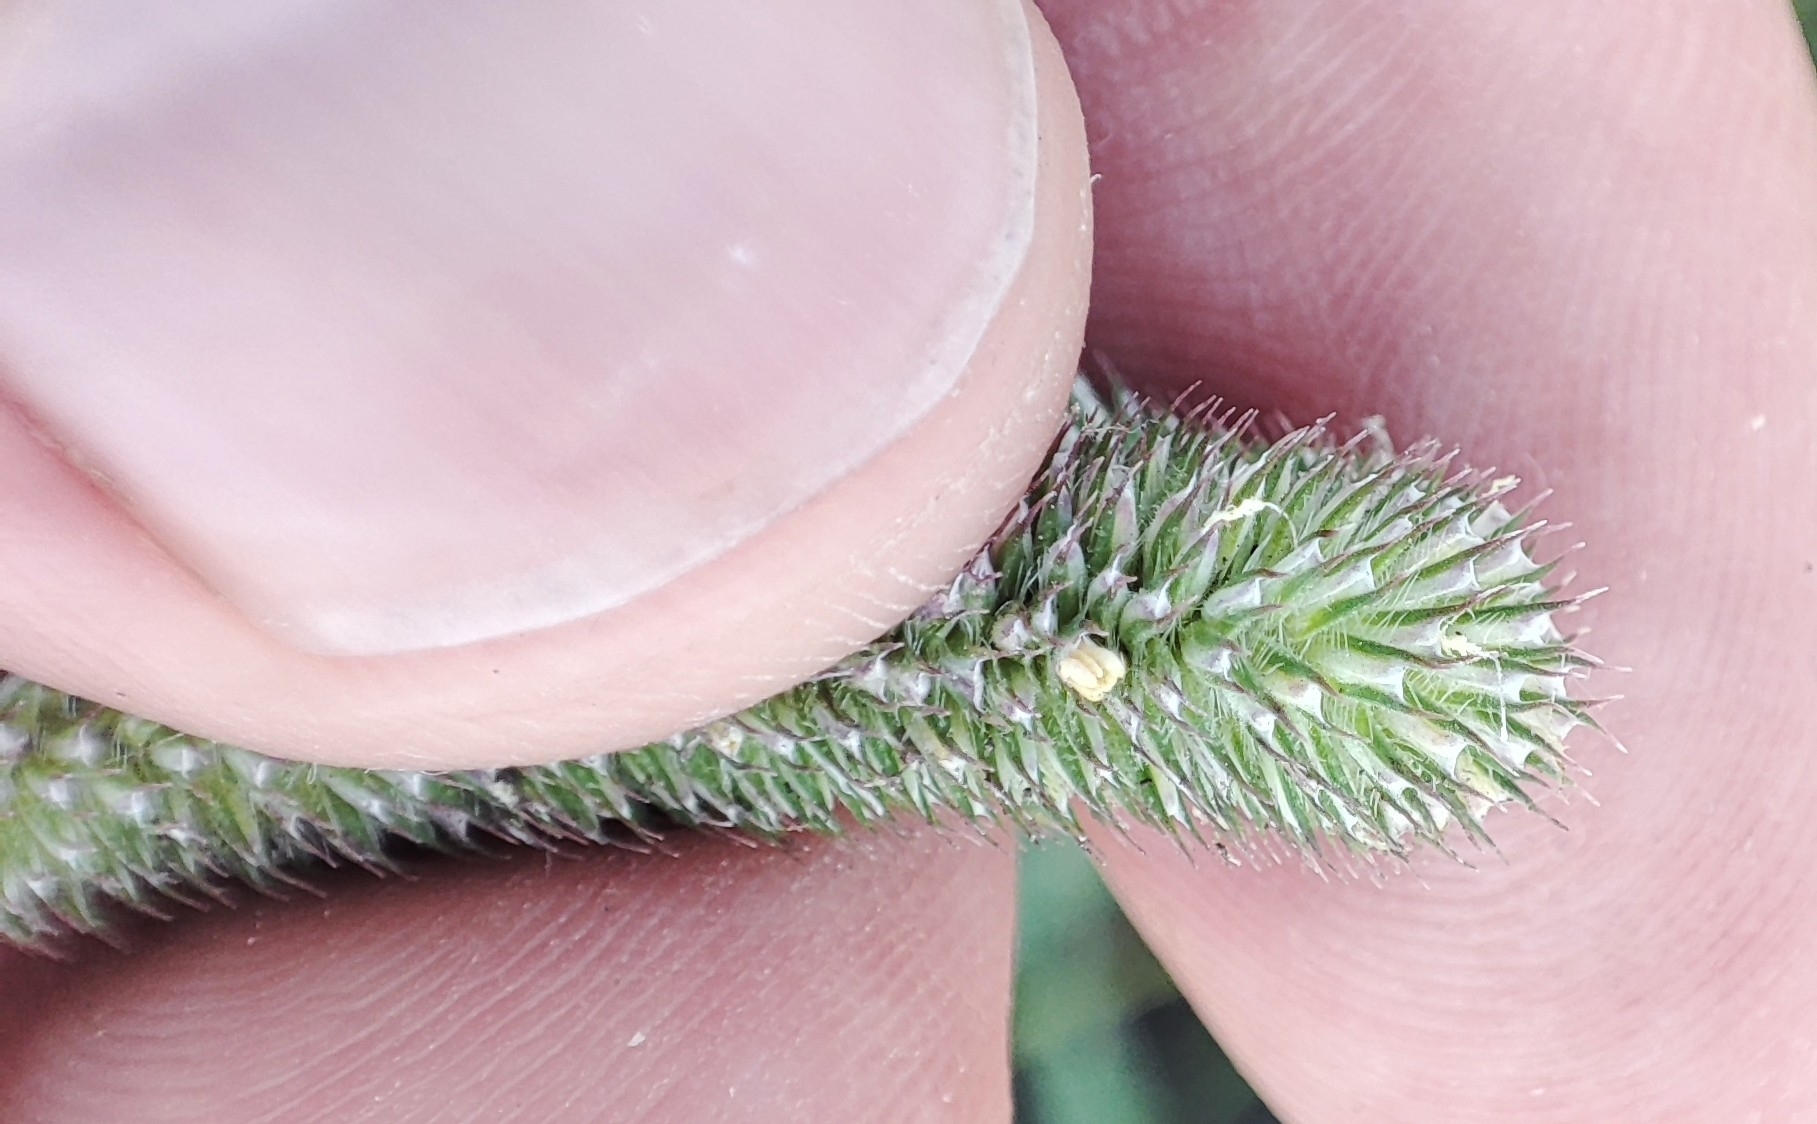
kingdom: Plantae
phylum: Tracheophyta
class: Liliopsida
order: Poales
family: Poaceae
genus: Phleum
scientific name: Phleum pratense
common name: Timothy grass
